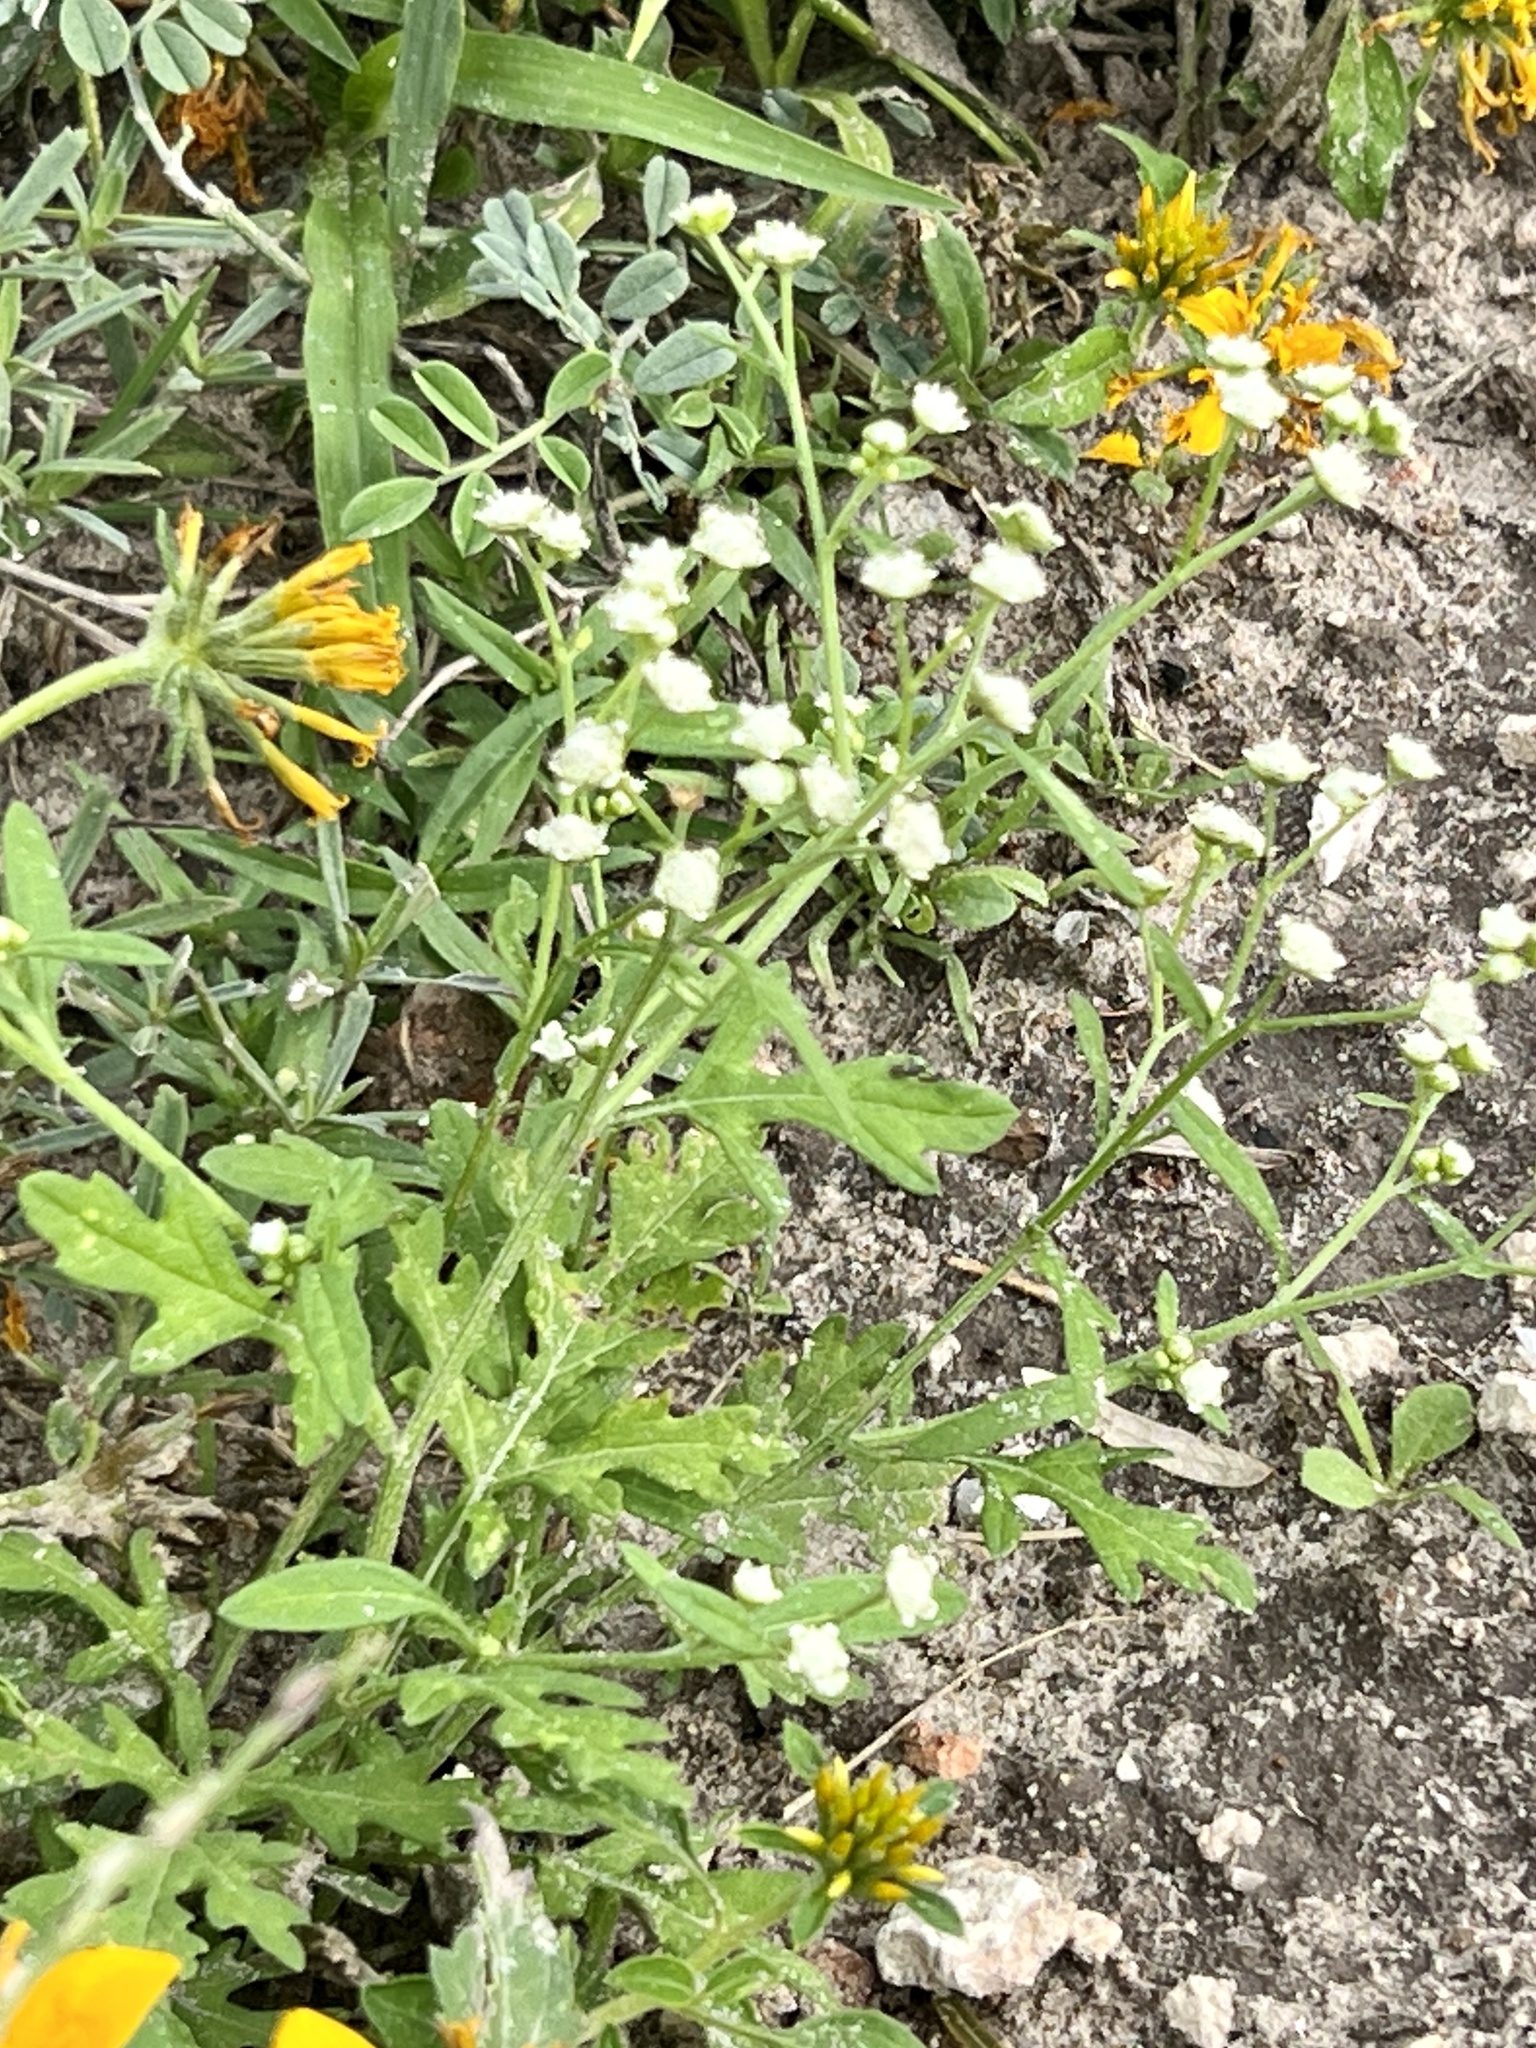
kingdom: Plantae
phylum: Tracheophyta
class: Magnoliopsida
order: Asterales
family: Asteraceae
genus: Parthenium
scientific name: Parthenium hysterophorus
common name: Santa maria feverfew
